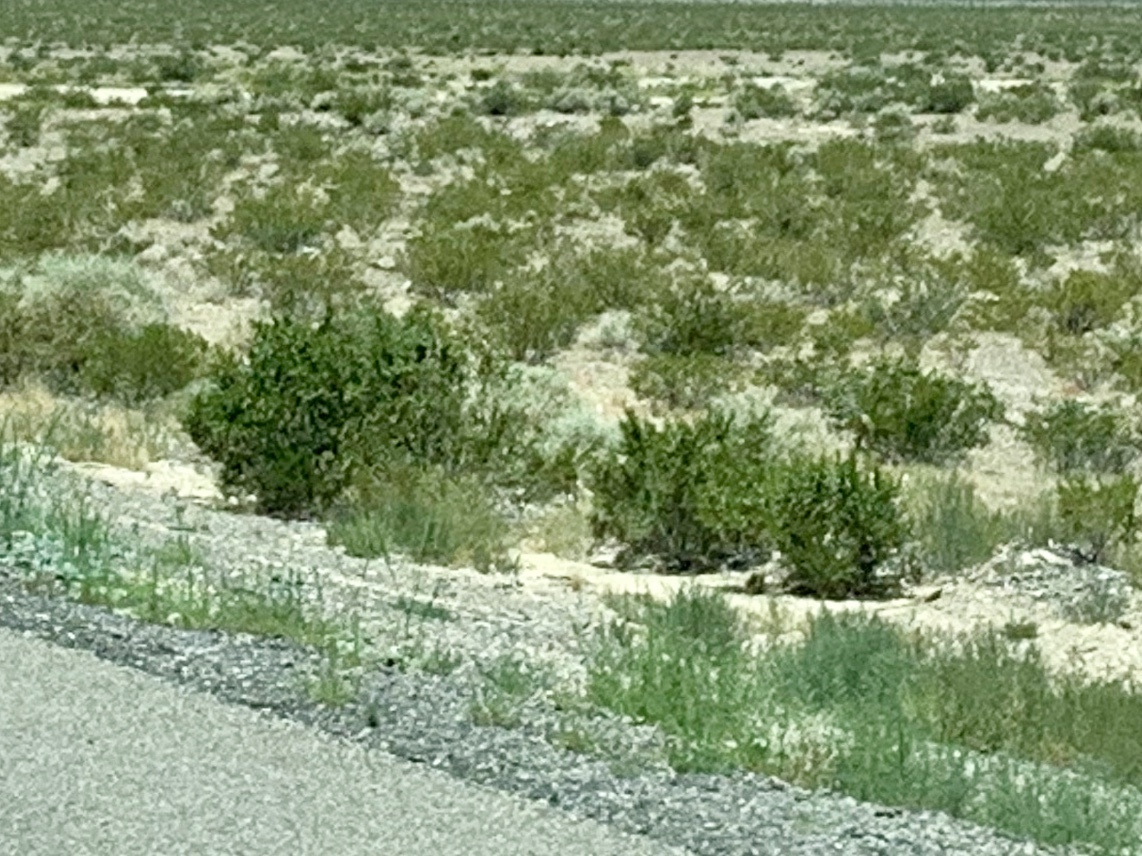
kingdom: Plantae
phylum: Tracheophyta
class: Magnoliopsida
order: Zygophyllales
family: Zygophyllaceae
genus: Larrea
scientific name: Larrea tridentata
